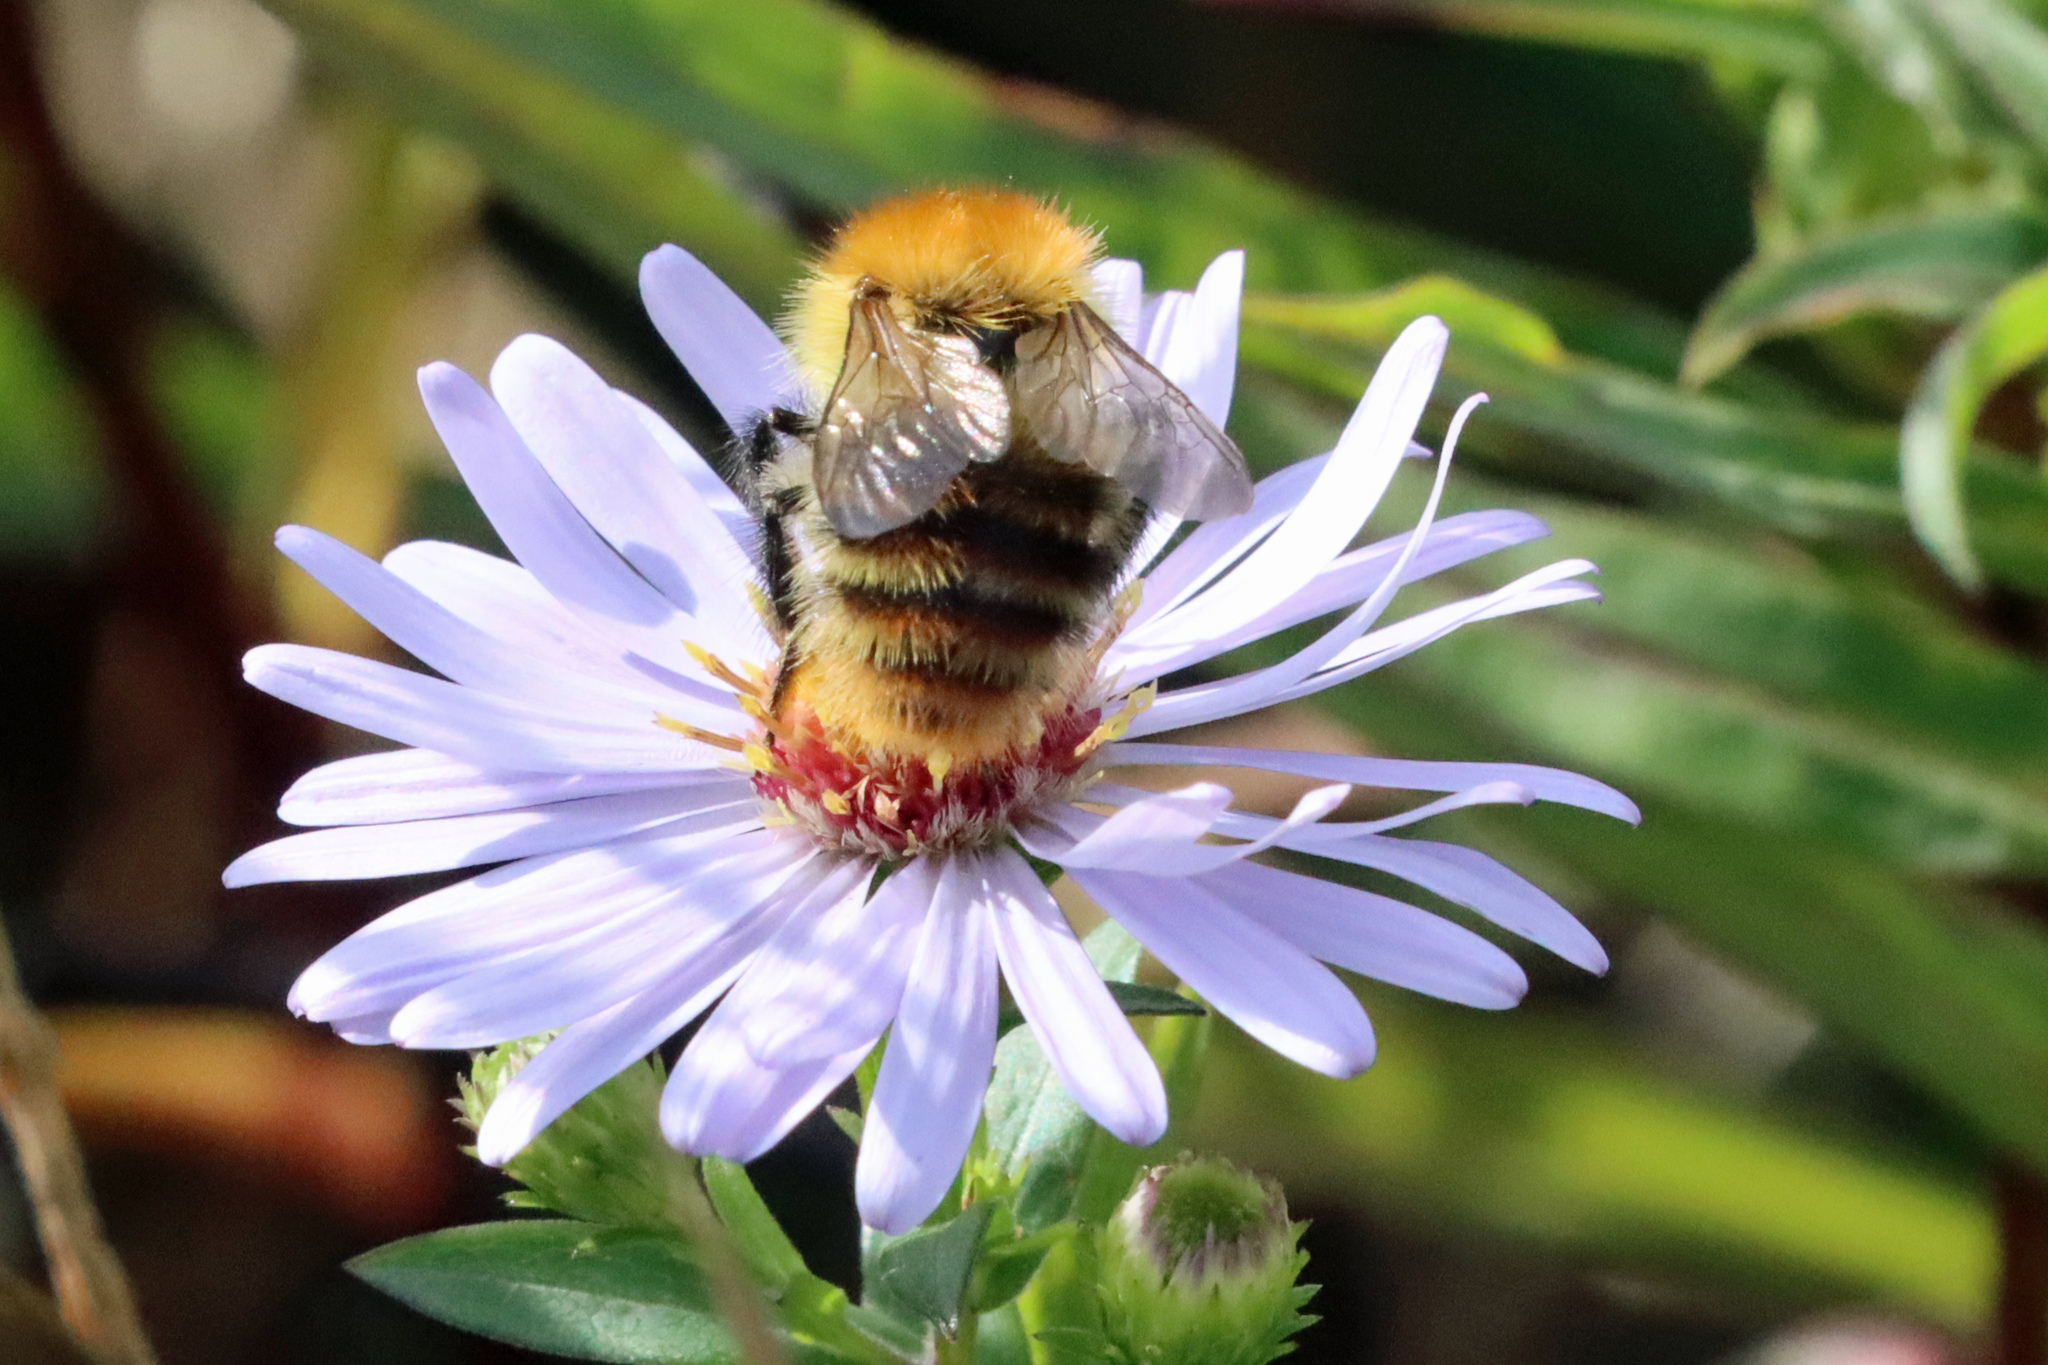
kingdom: Animalia
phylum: Arthropoda
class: Insecta
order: Hymenoptera
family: Apidae
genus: Bombus
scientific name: Bombus pascuorum
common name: Common carder bee
